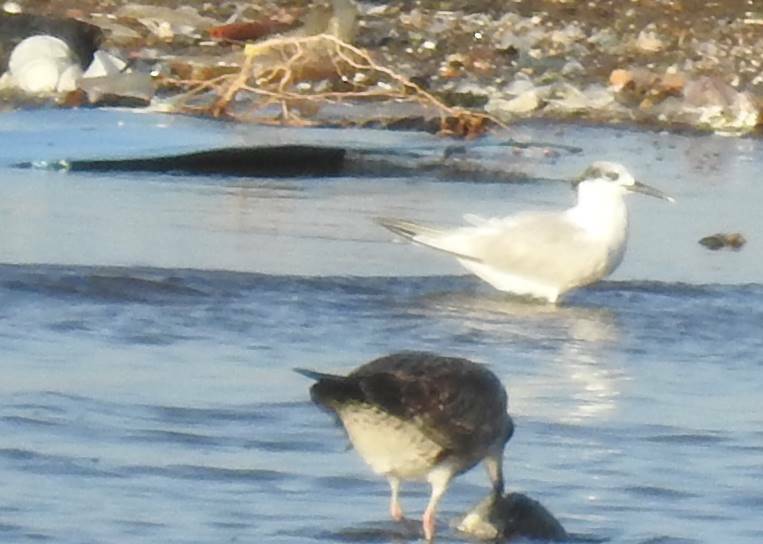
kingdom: Animalia
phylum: Chordata
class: Aves
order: Charadriiformes
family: Laridae
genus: Thalasseus
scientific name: Thalasseus sandvicensis
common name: Sandwich tern
